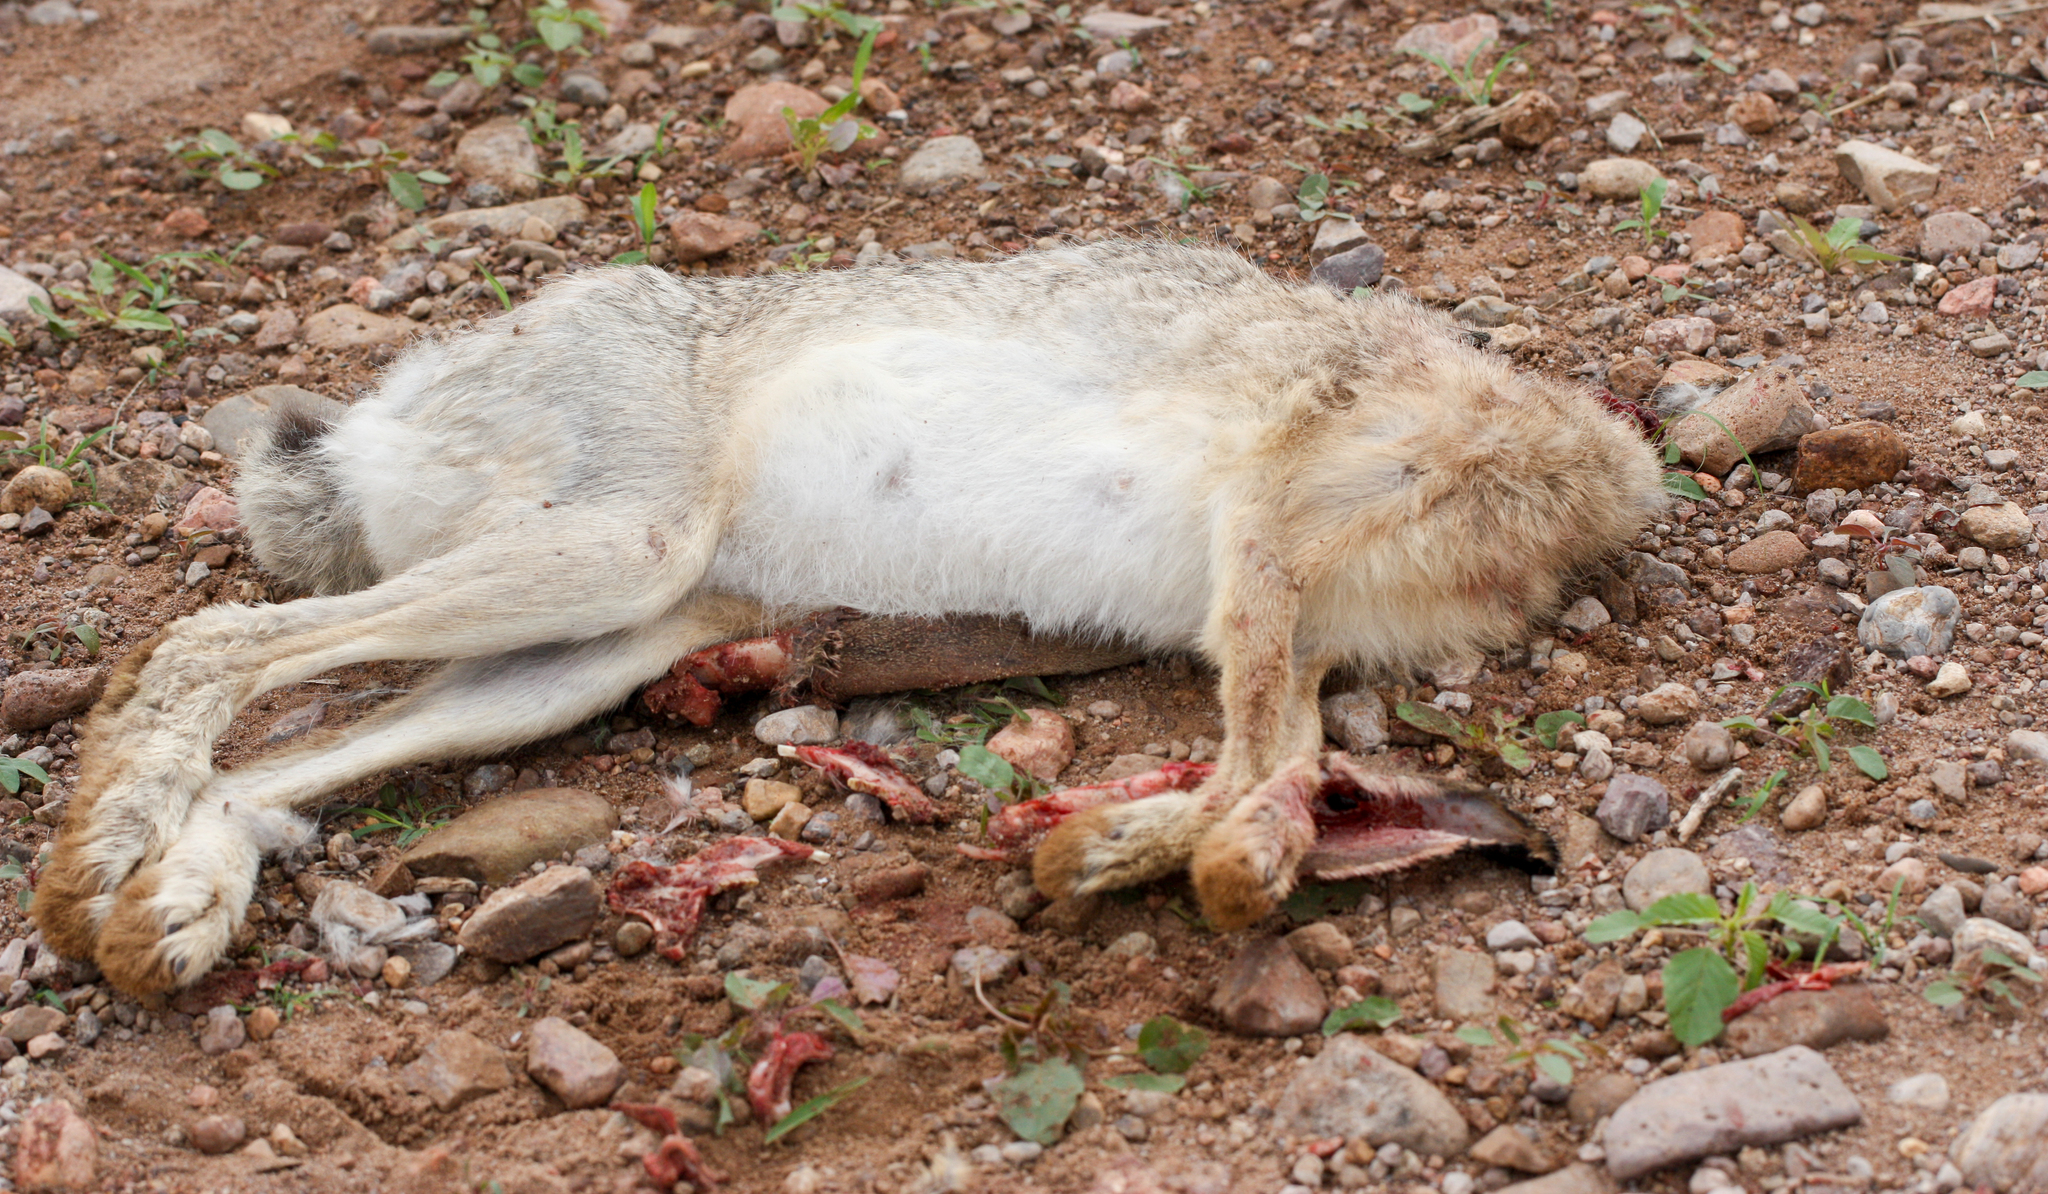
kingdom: Animalia
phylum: Chordata
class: Mammalia
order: Lagomorpha
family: Leporidae
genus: Lepus
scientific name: Lepus californicus
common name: Black-tailed jackrabbit
